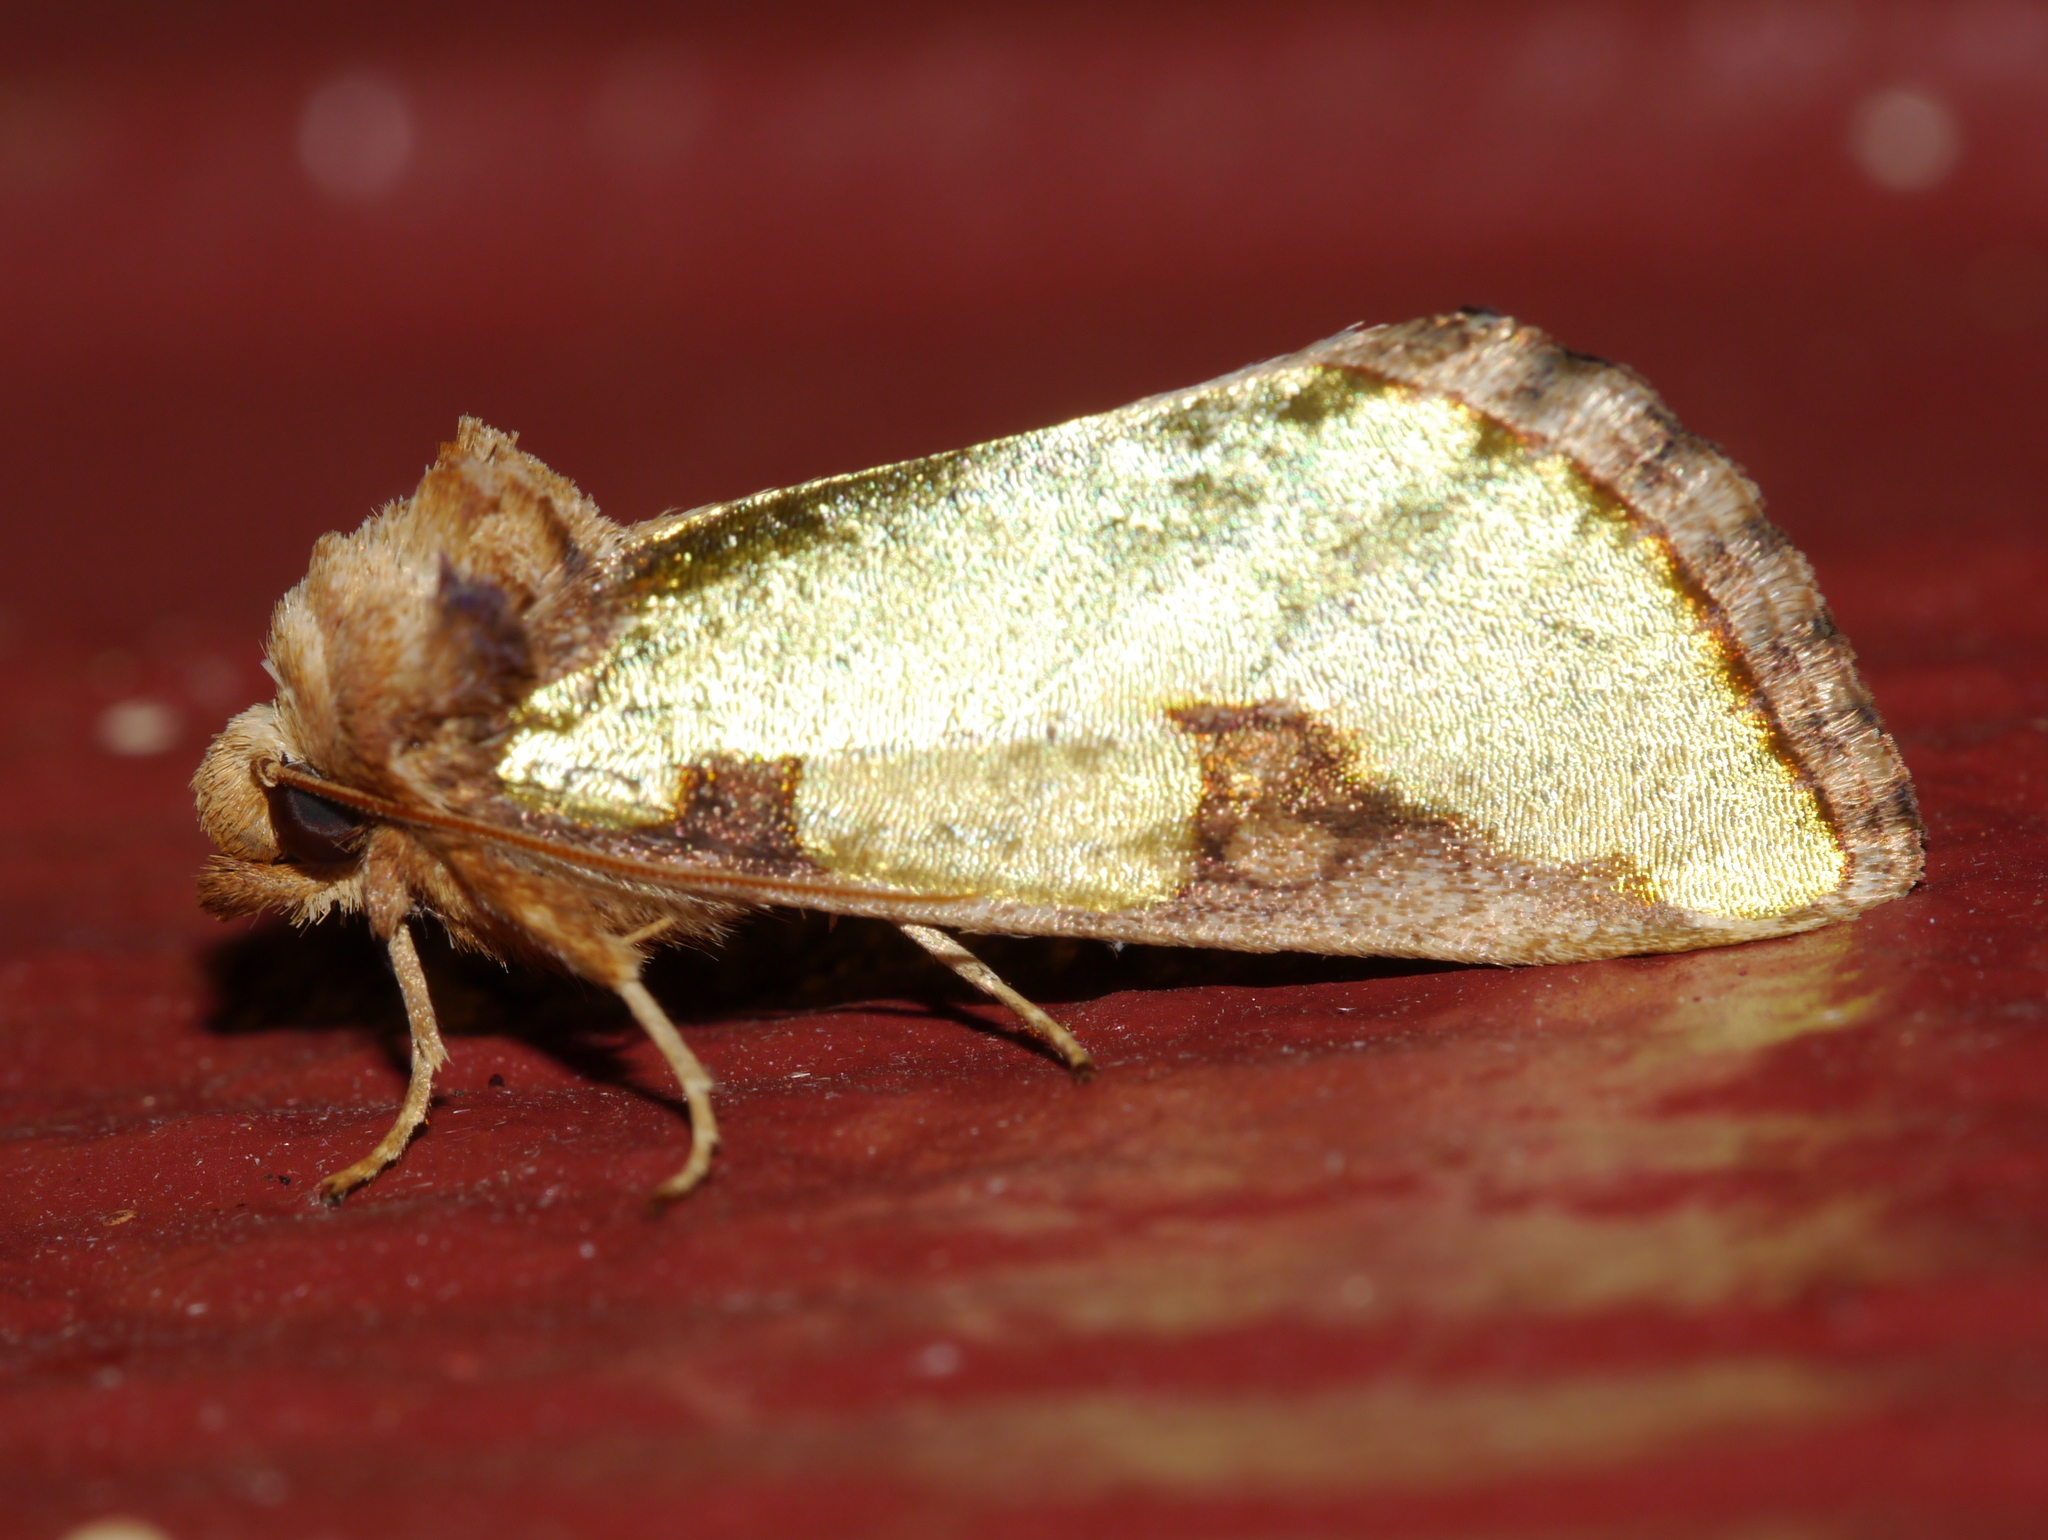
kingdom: Animalia
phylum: Arthropoda
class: Insecta
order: Lepidoptera
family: Noctuidae
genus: Chalcopasta
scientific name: Chalcopasta territans
